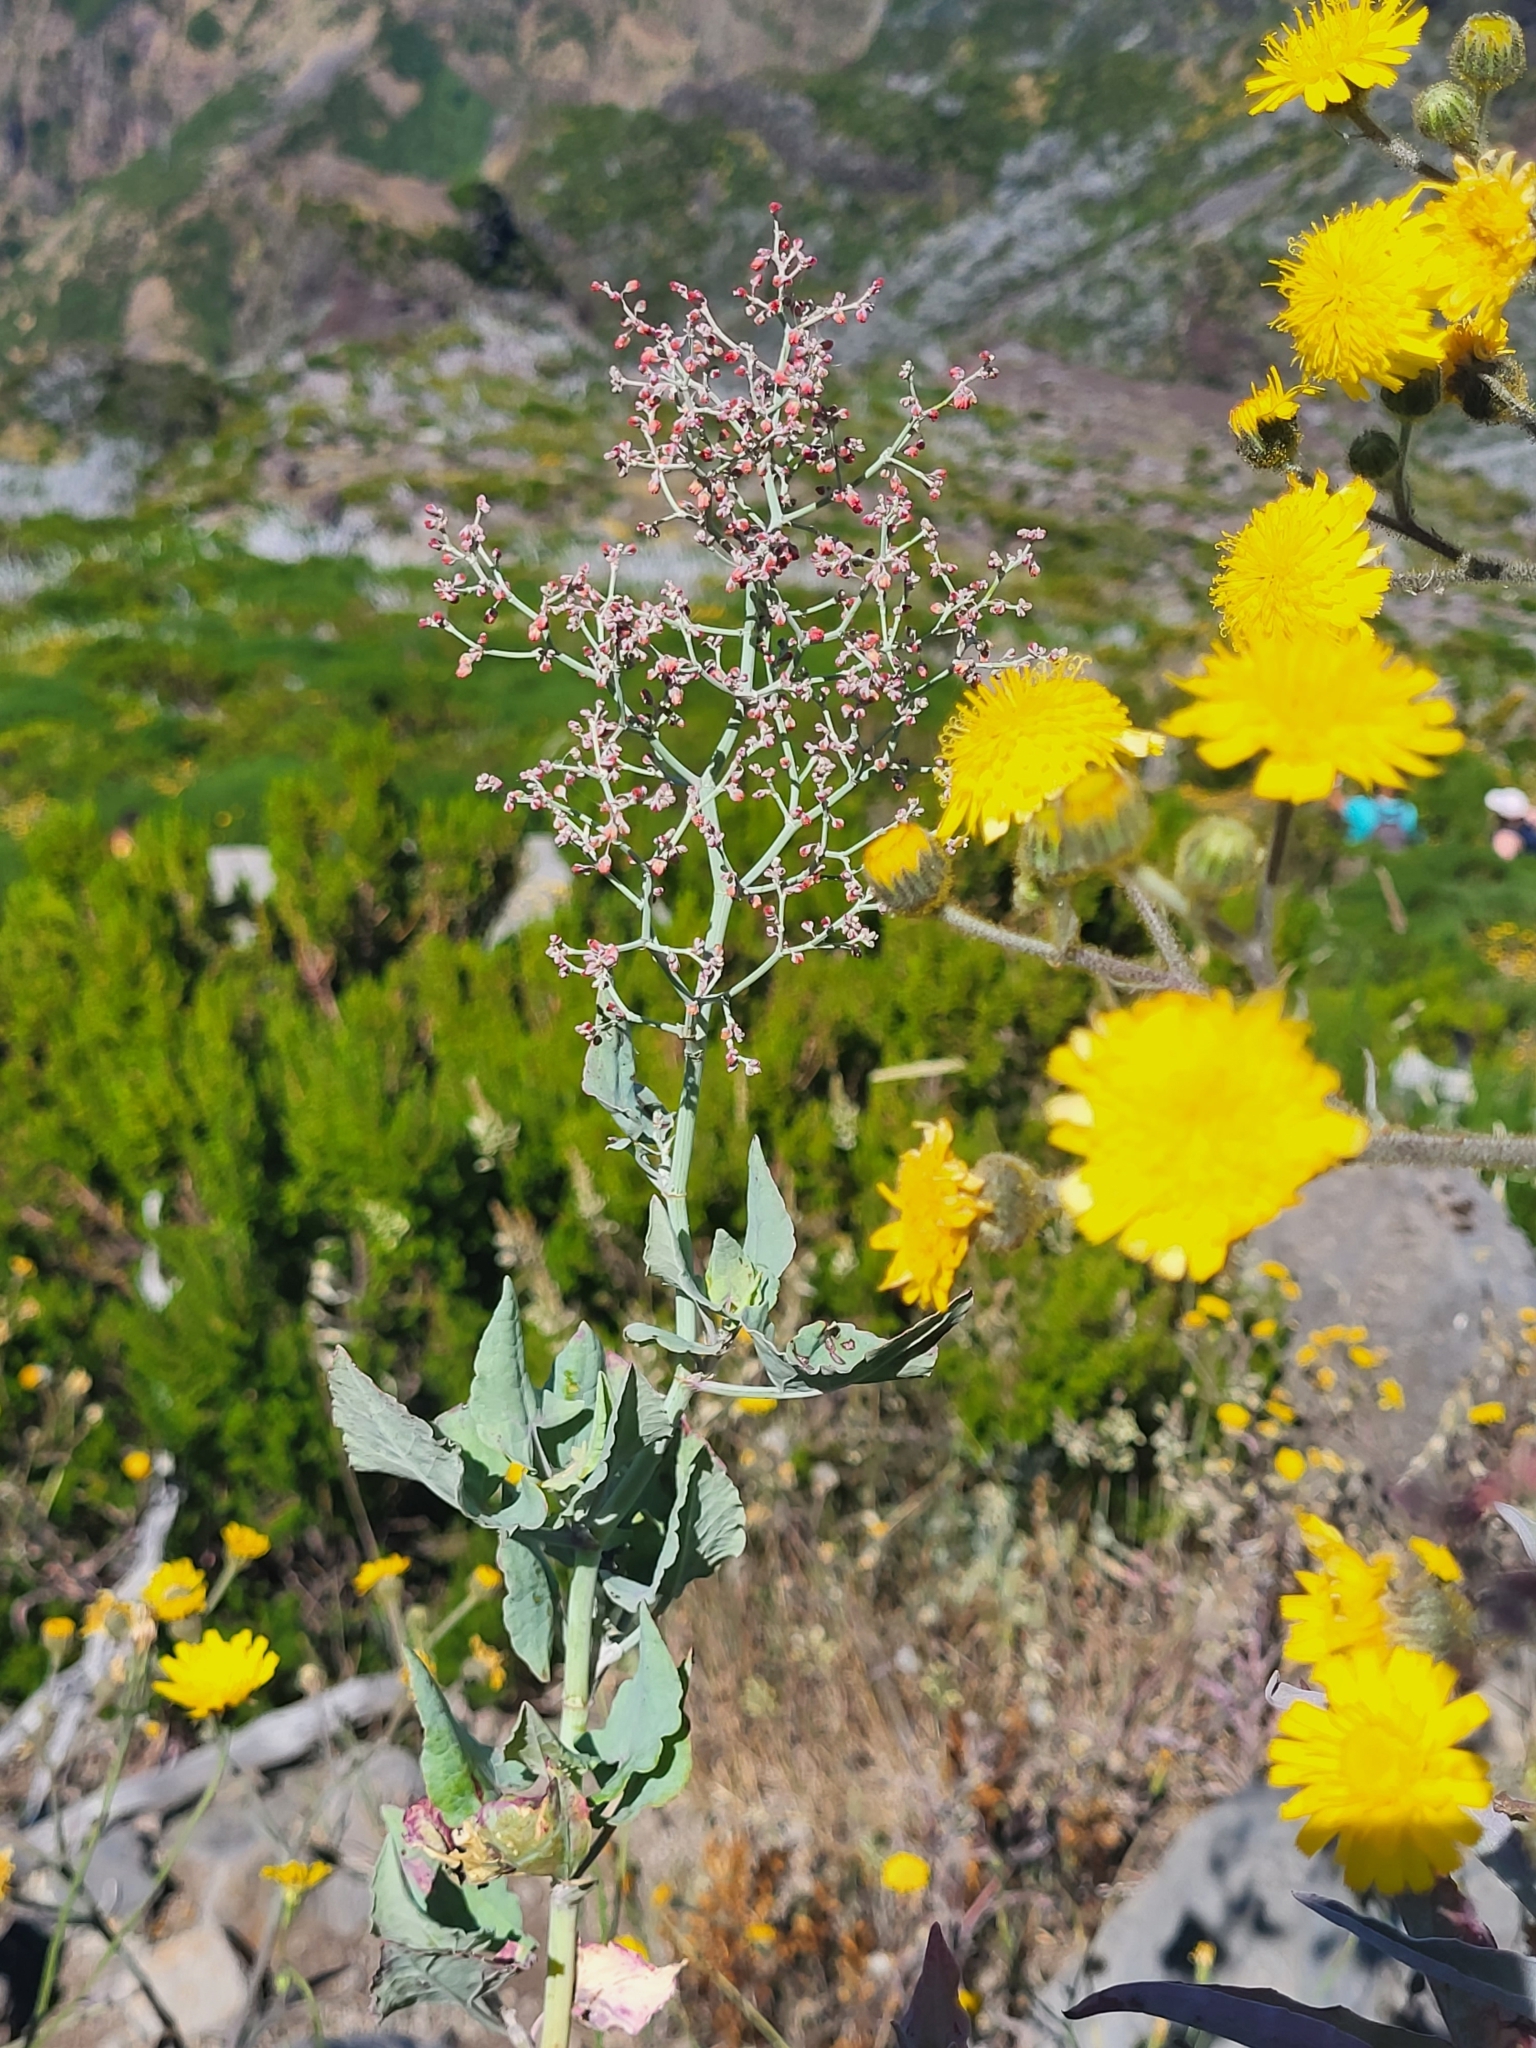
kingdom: Plantae
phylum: Tracheophyta
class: Magnoliopsida
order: Caryophyllales
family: Polygonaceae
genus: Rumex
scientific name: Rumex maderensis
